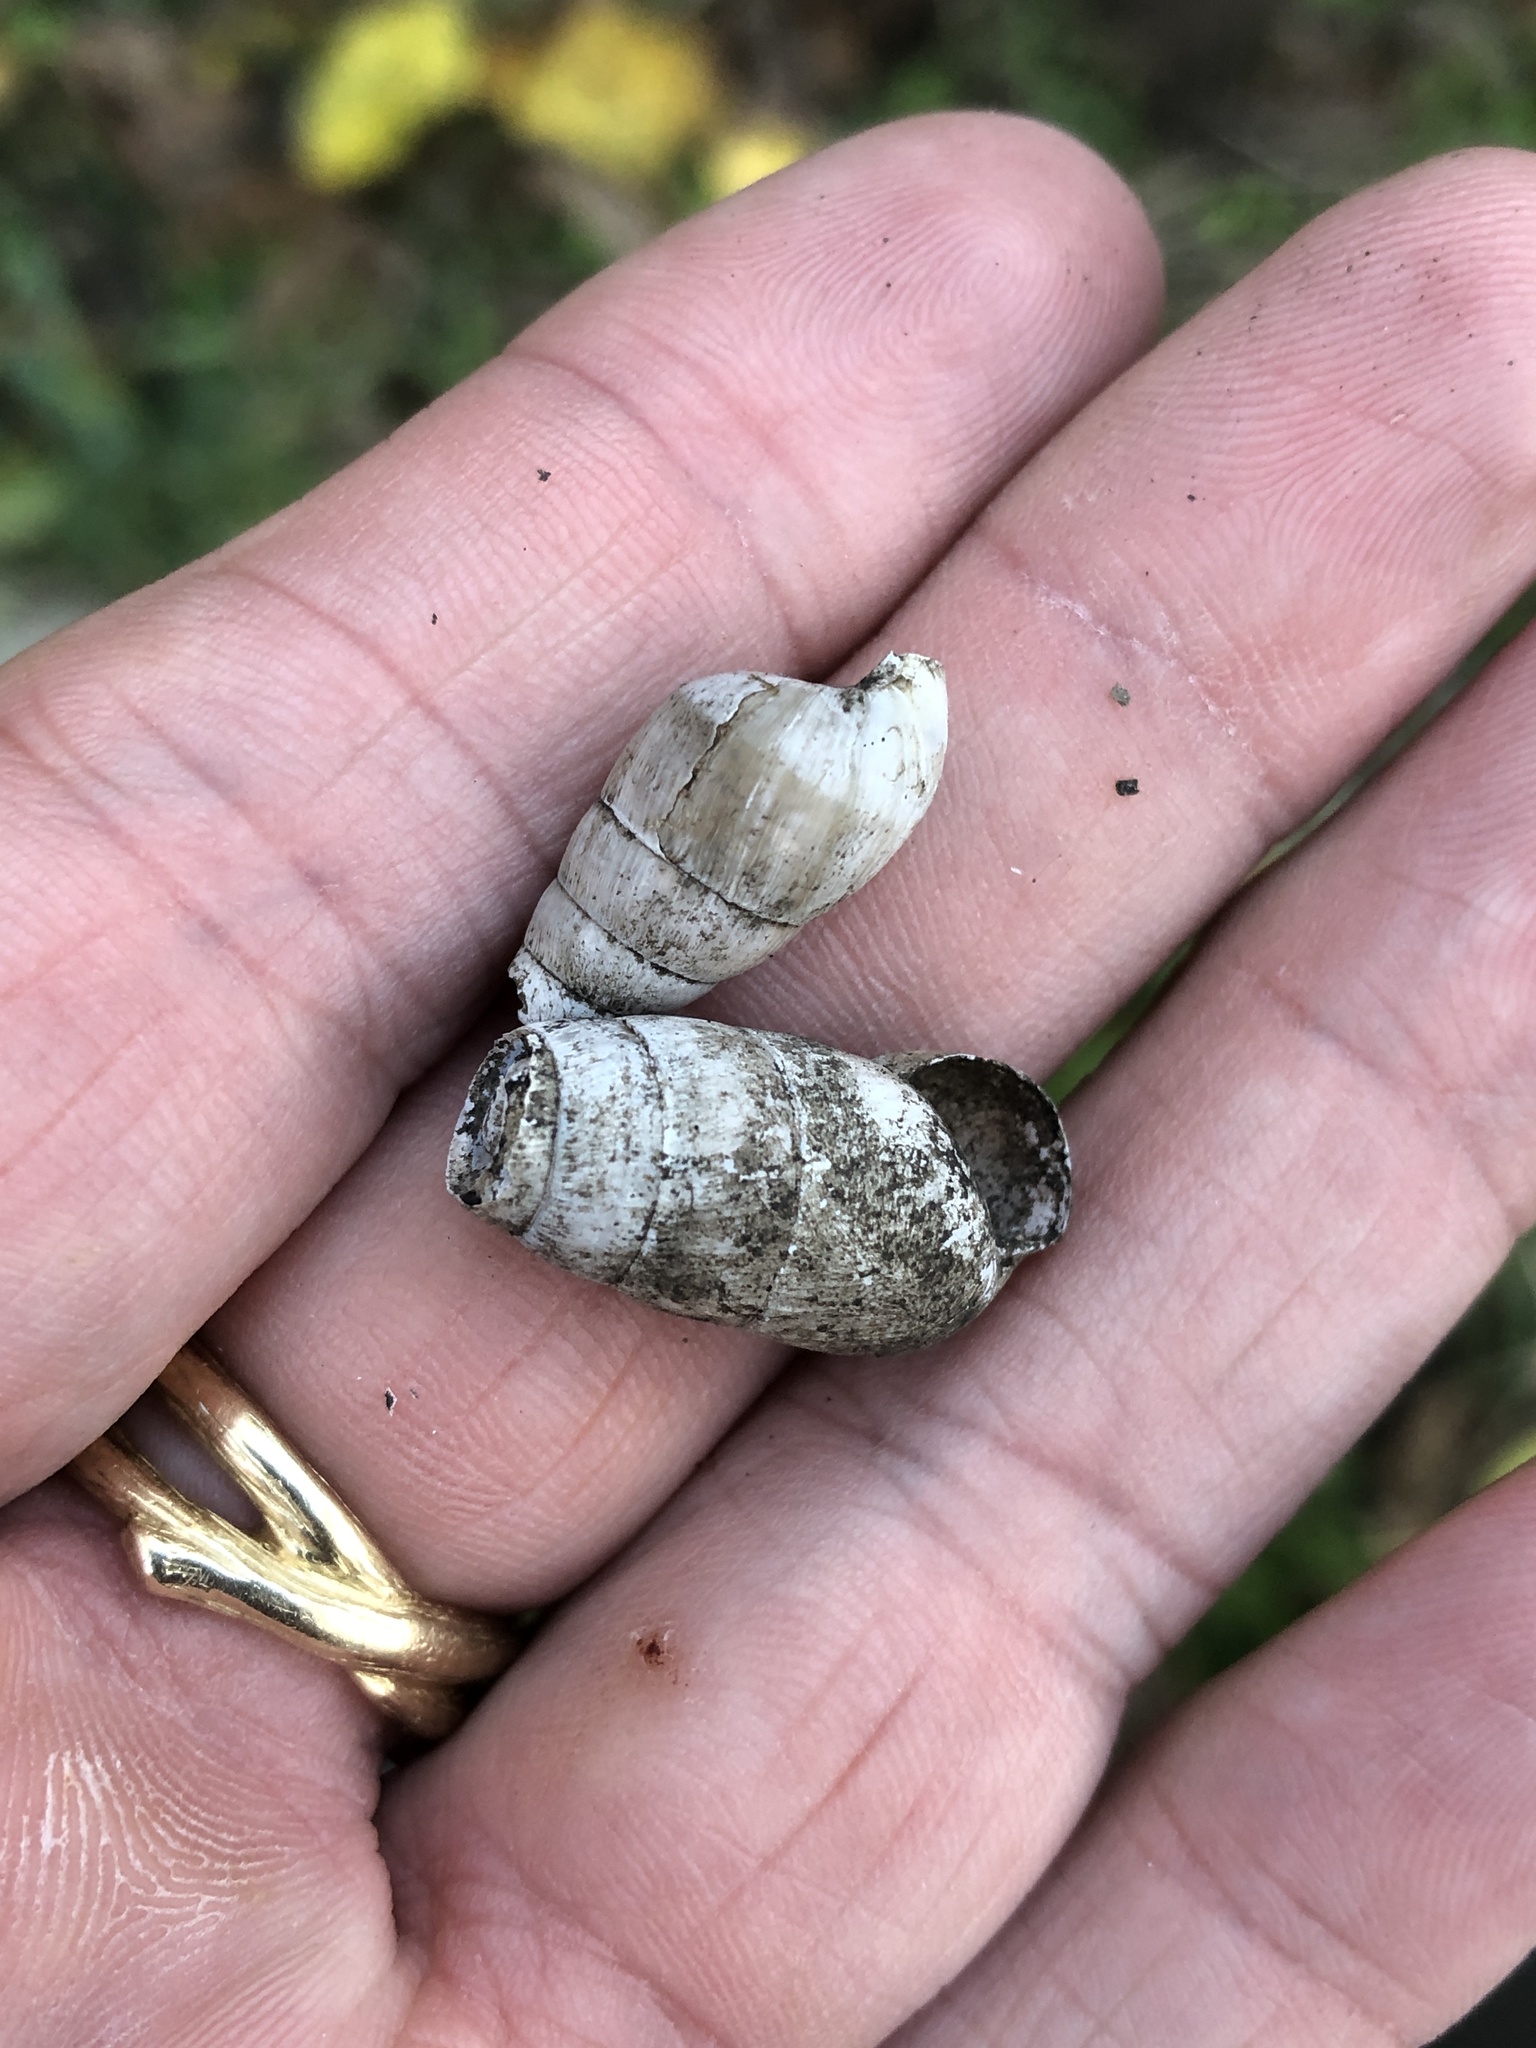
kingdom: Animalia
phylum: Mollusca
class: Gastropoda
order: Stylommatophora
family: Achatinidae
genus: Rumina
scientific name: Rumina decollata
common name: Decollate snail
